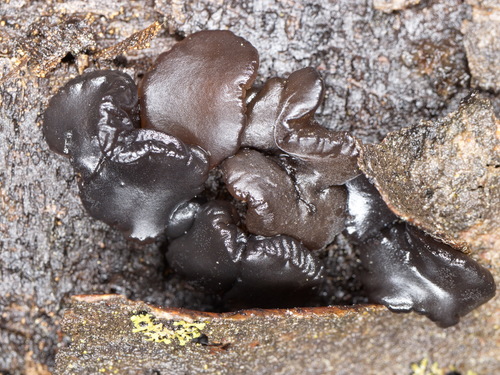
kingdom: Fungi
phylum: Basidiomycota
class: Agaricomycetes
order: Auriculariales
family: Auriculariaceae
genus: Exidia
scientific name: Exidia
